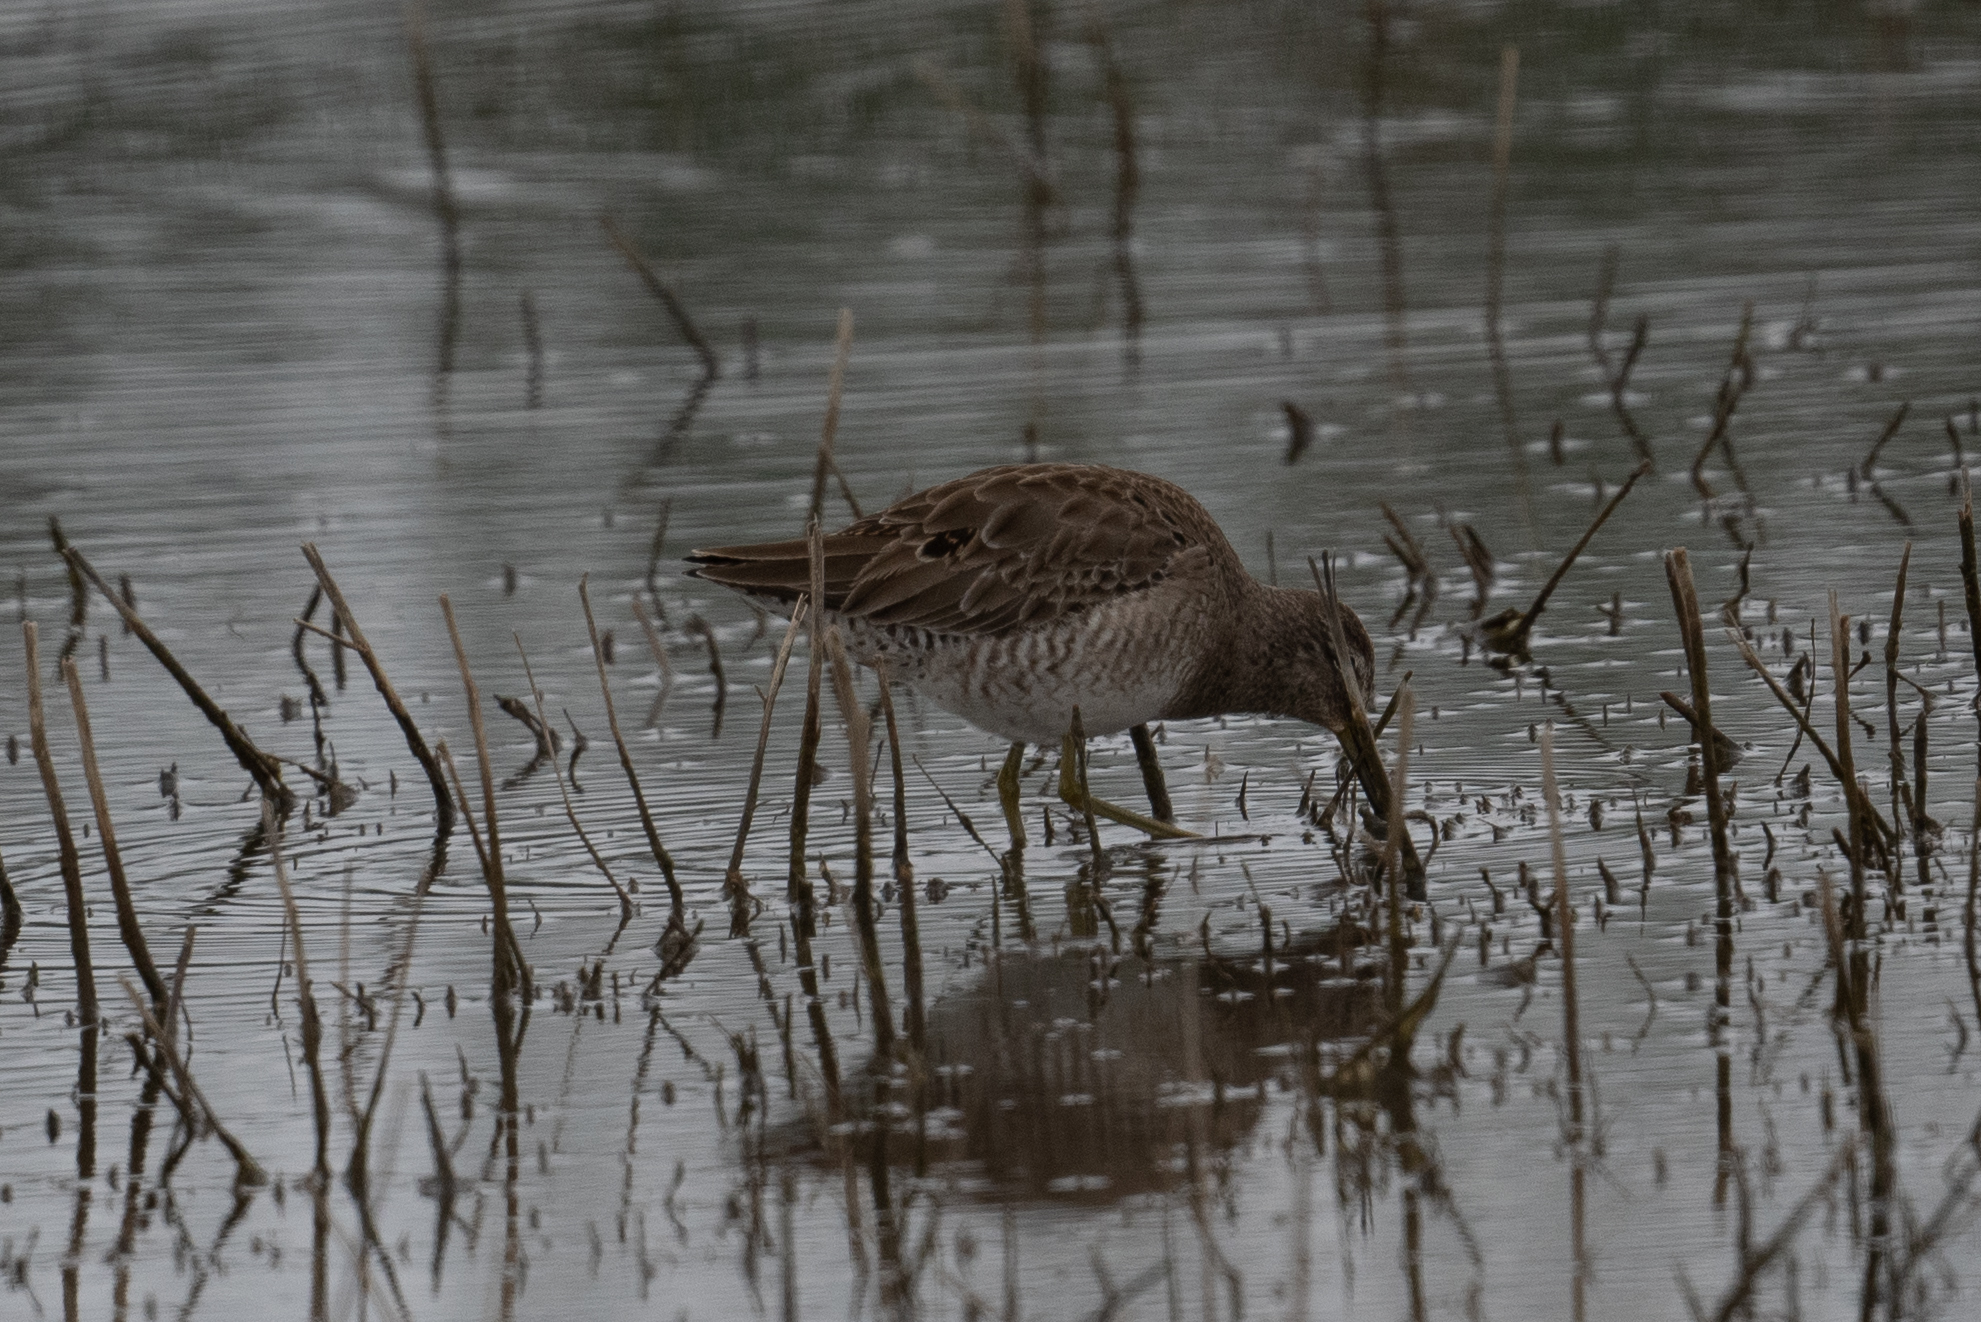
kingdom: Animalia
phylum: Chordata
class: Aves
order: Charadriiformes
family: Scolopacidae
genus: Limnodromus
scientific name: Limnodromus scolopaceus
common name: Long-billed dowitcher
